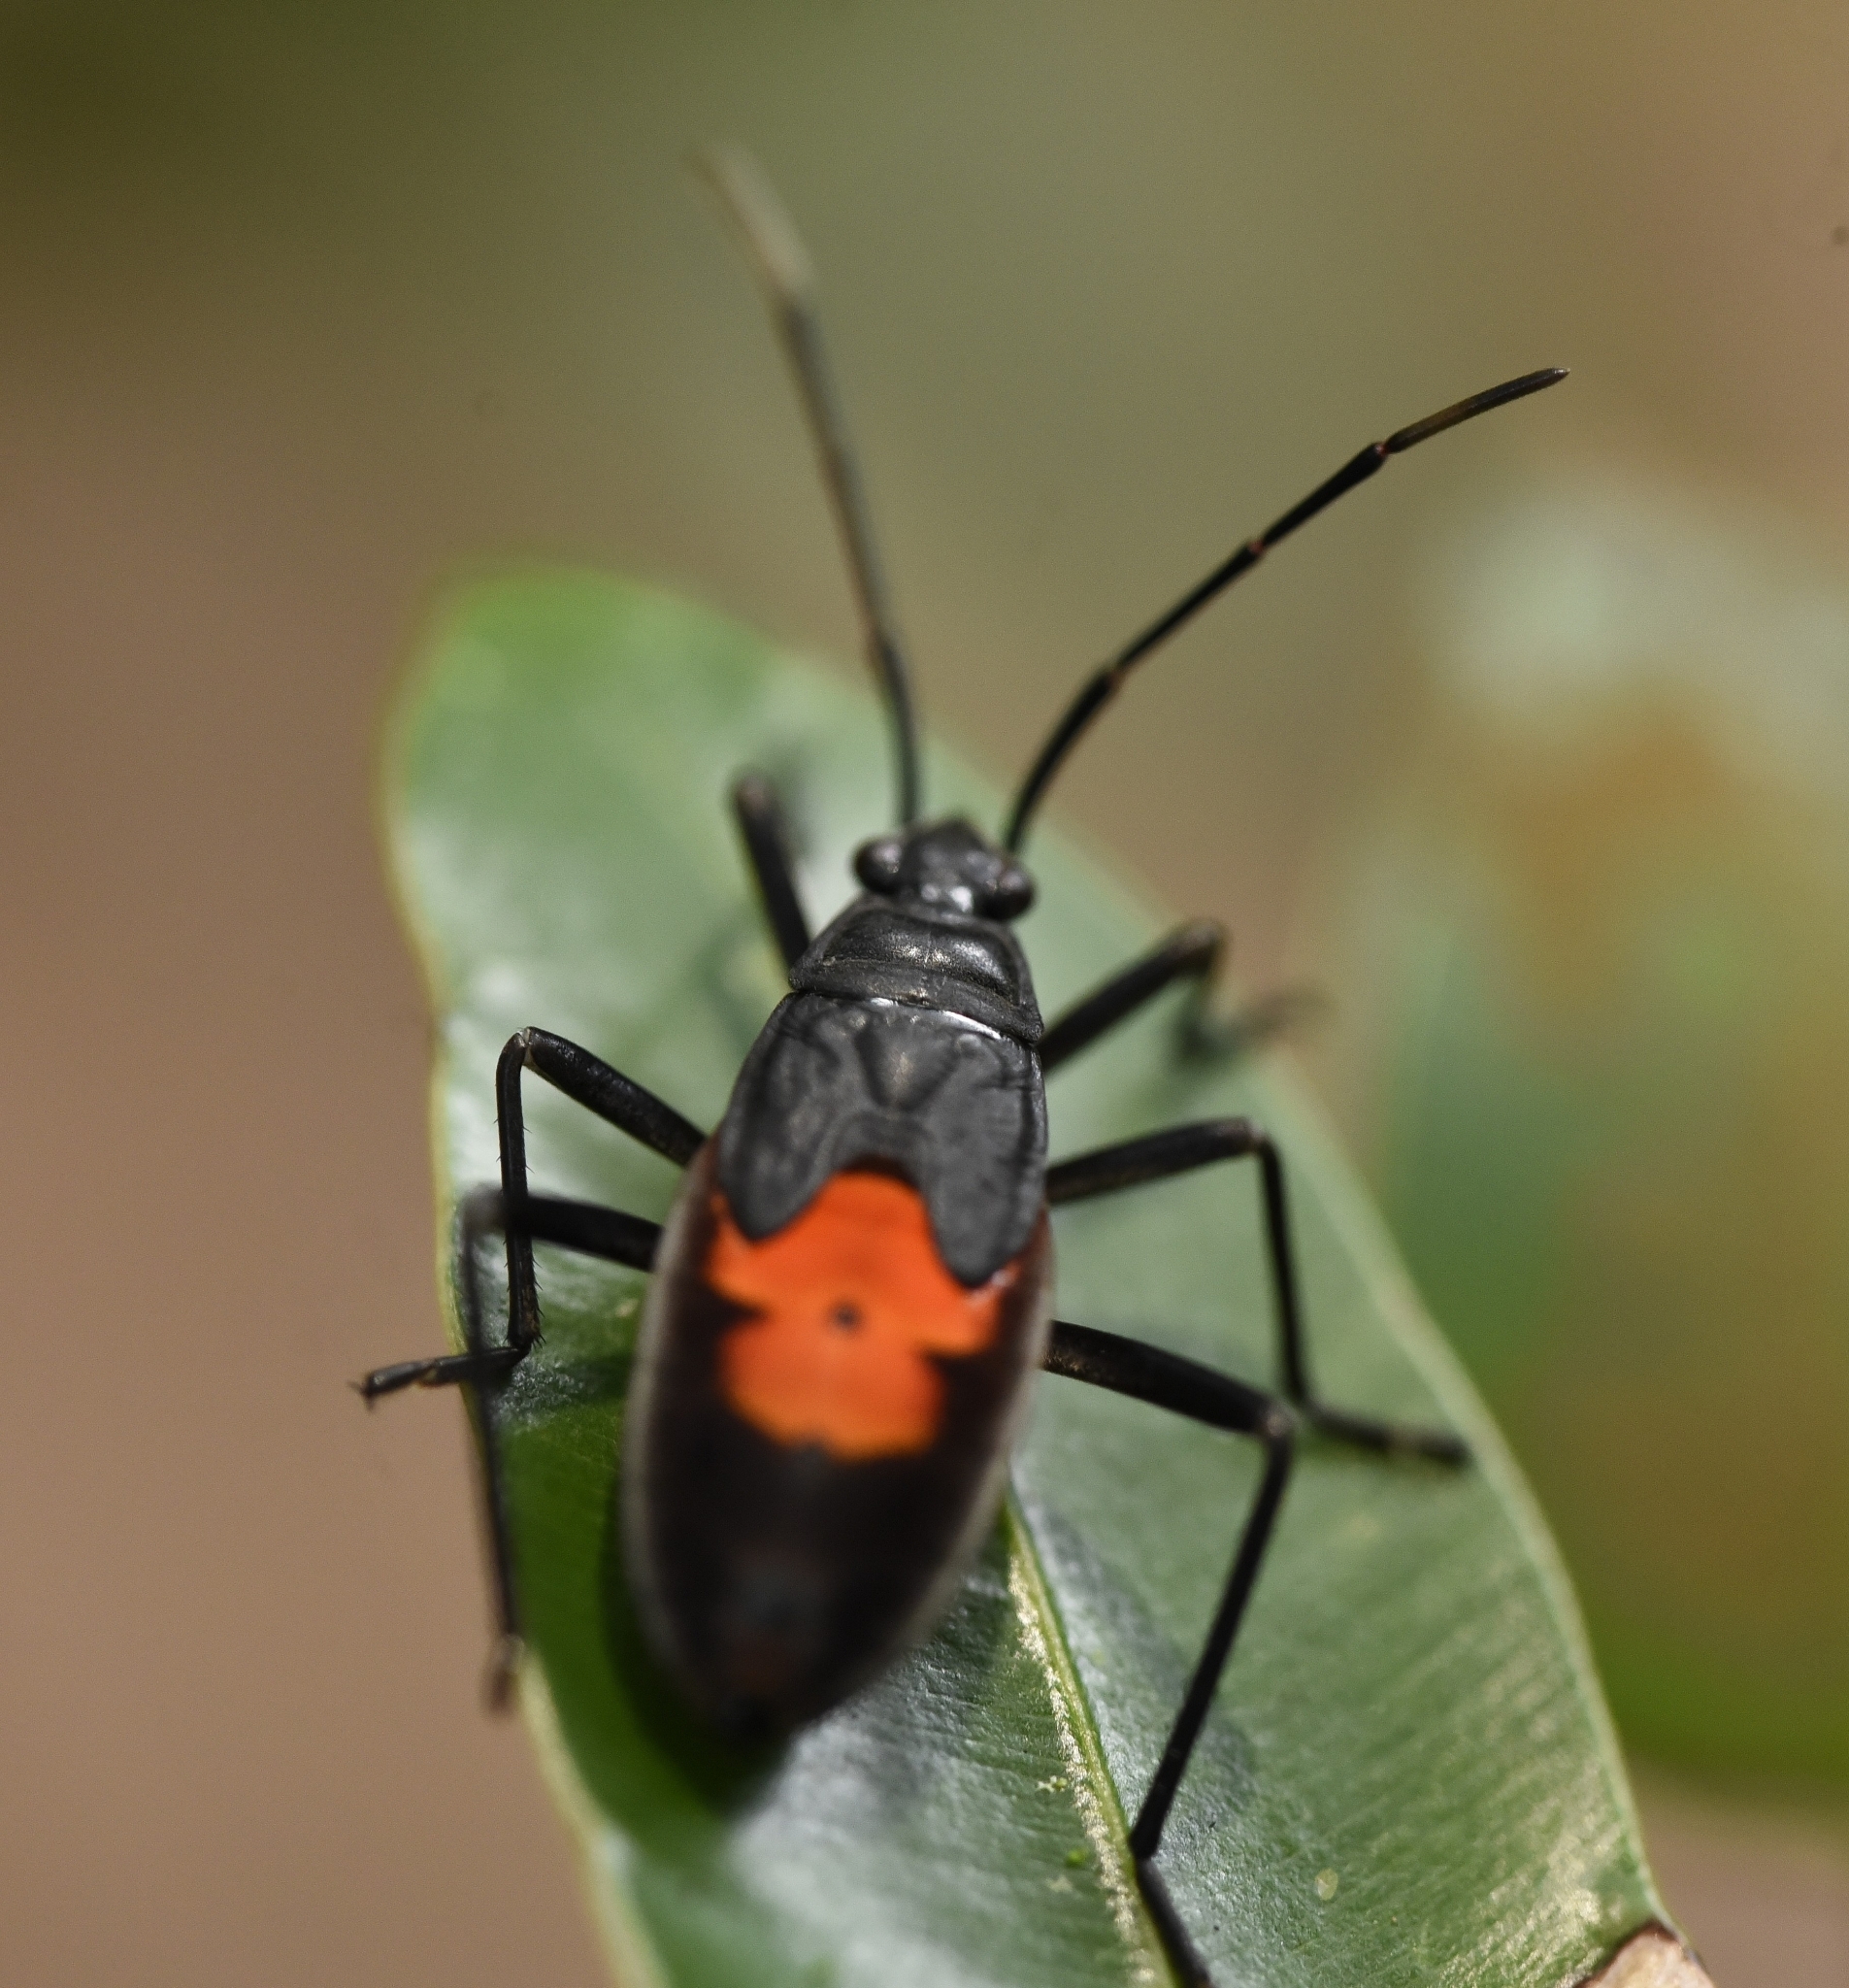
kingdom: Animalia
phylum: Arthropoda
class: Insecta
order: Hemiptera
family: Pyrrhocoridae
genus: Melamphaus
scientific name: Melamphaus
